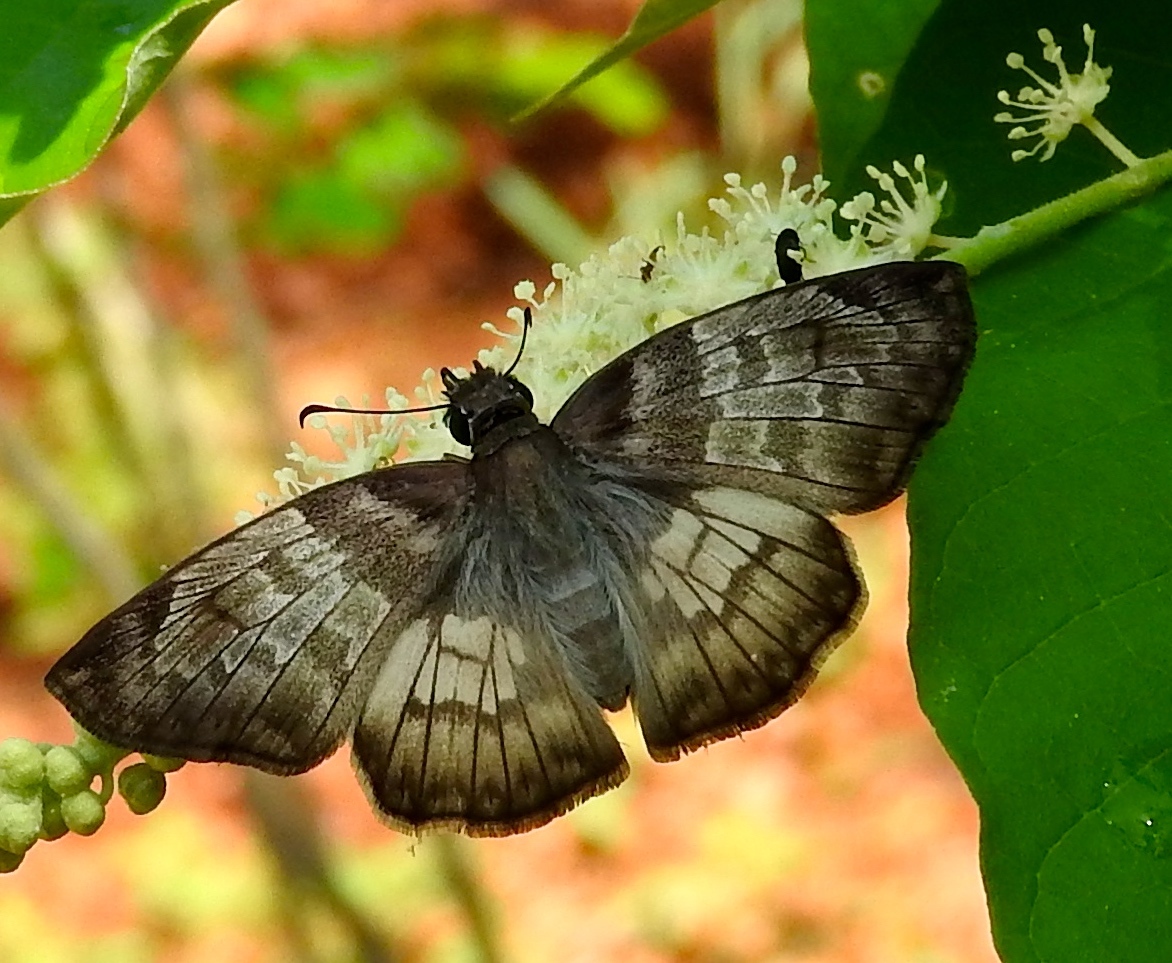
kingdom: Animalia
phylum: Arthropoda
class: Insecta
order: Lepidoptera
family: Hesperiidae
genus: Mylon
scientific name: Mylon pelopidas
